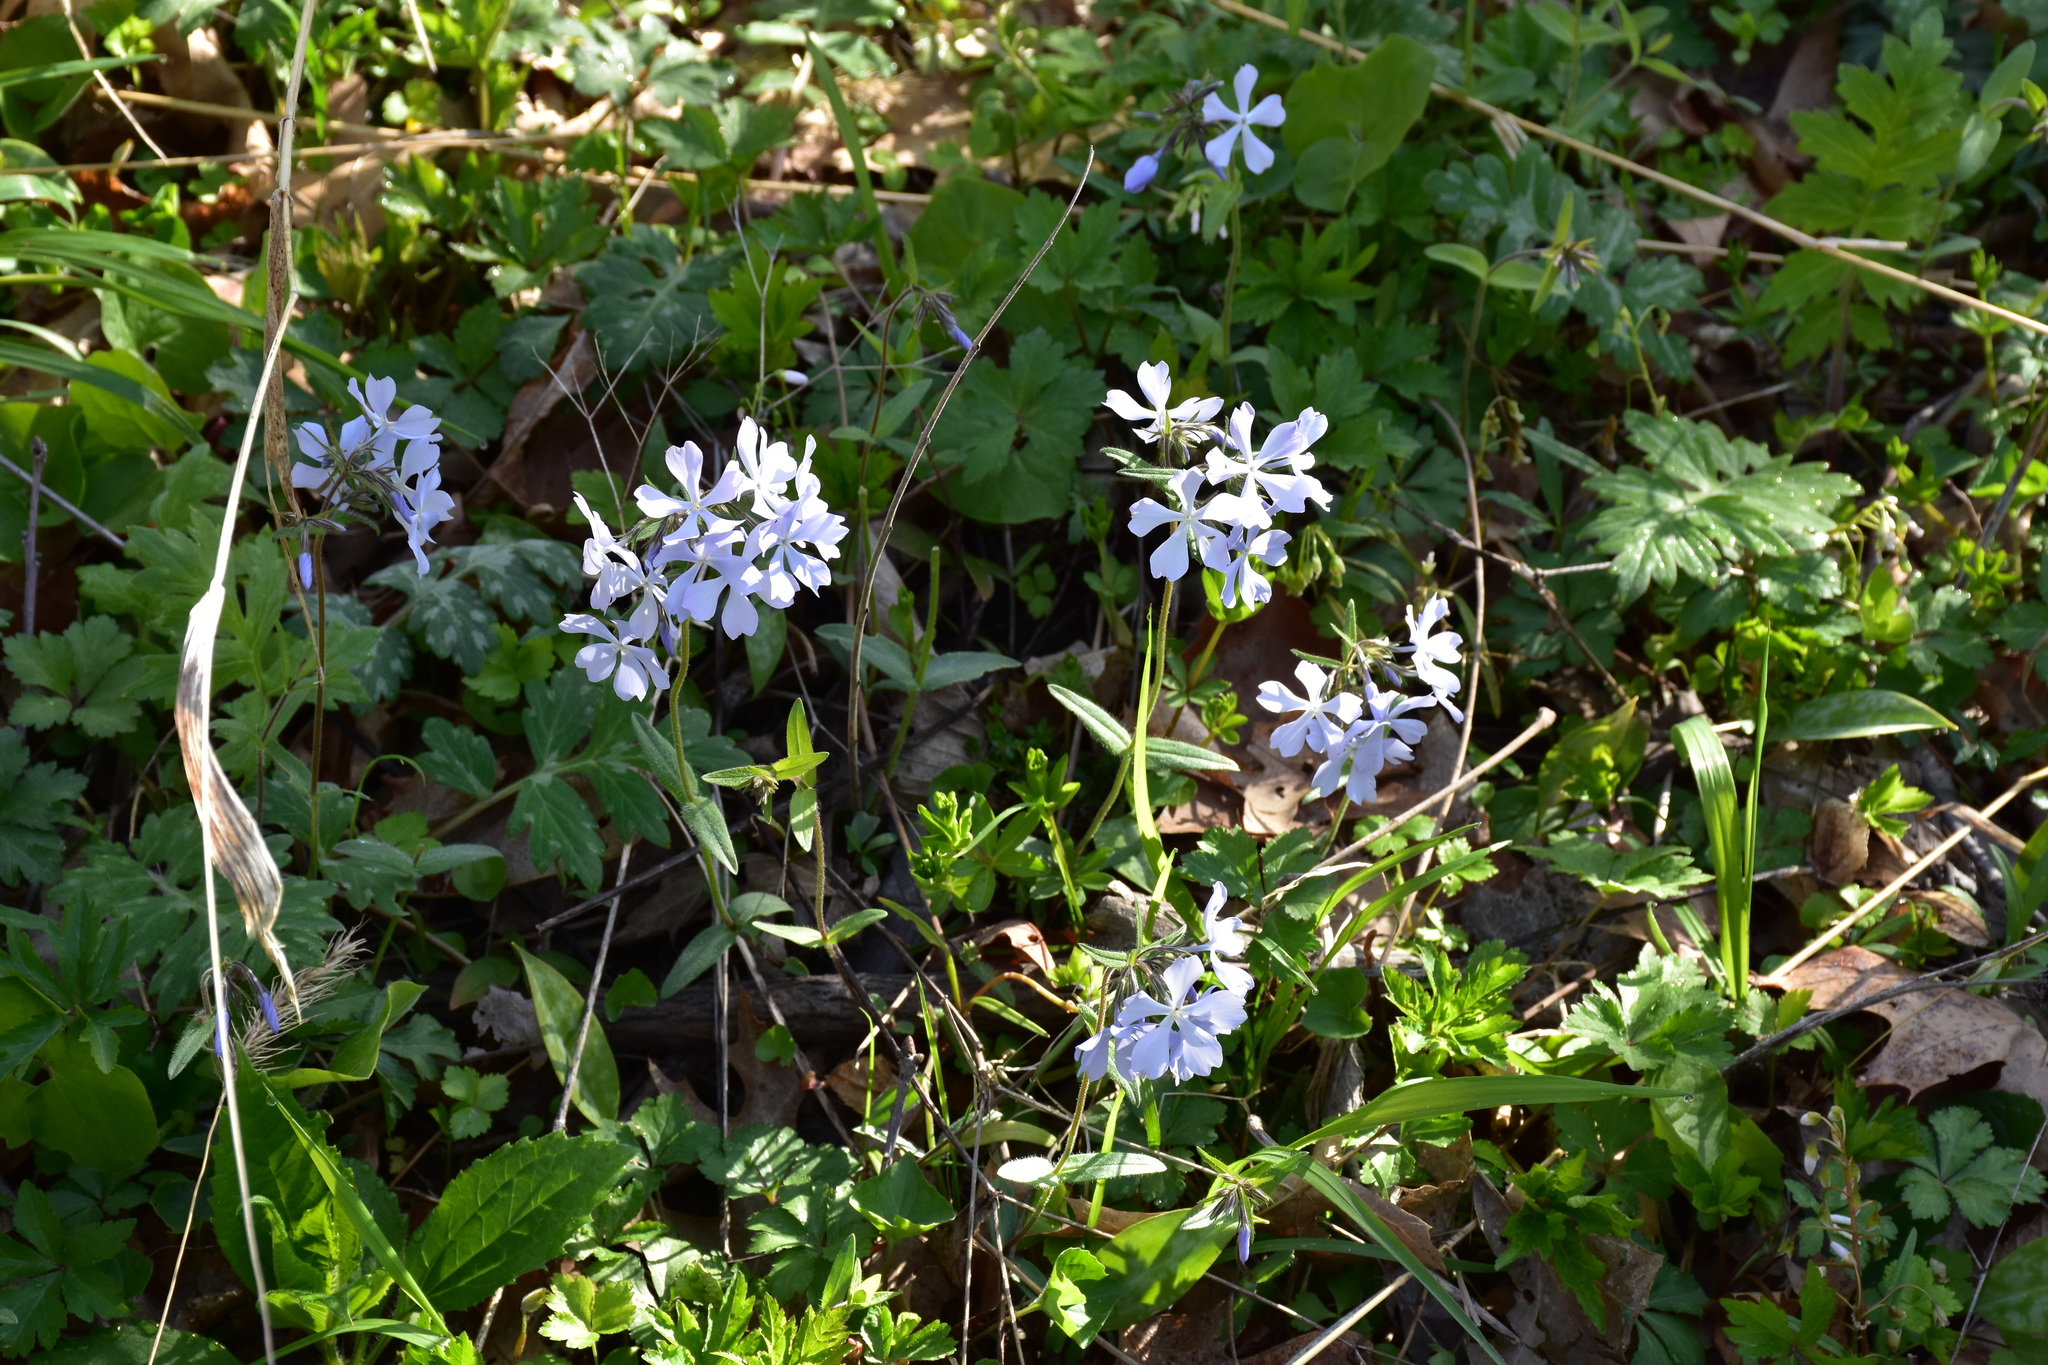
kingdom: Plantae
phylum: Tracheophyta
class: Magnoliopsida
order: Ericales
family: Polemoniaceae
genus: Phlox
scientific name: Phlox divaricata
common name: Blue phlox
